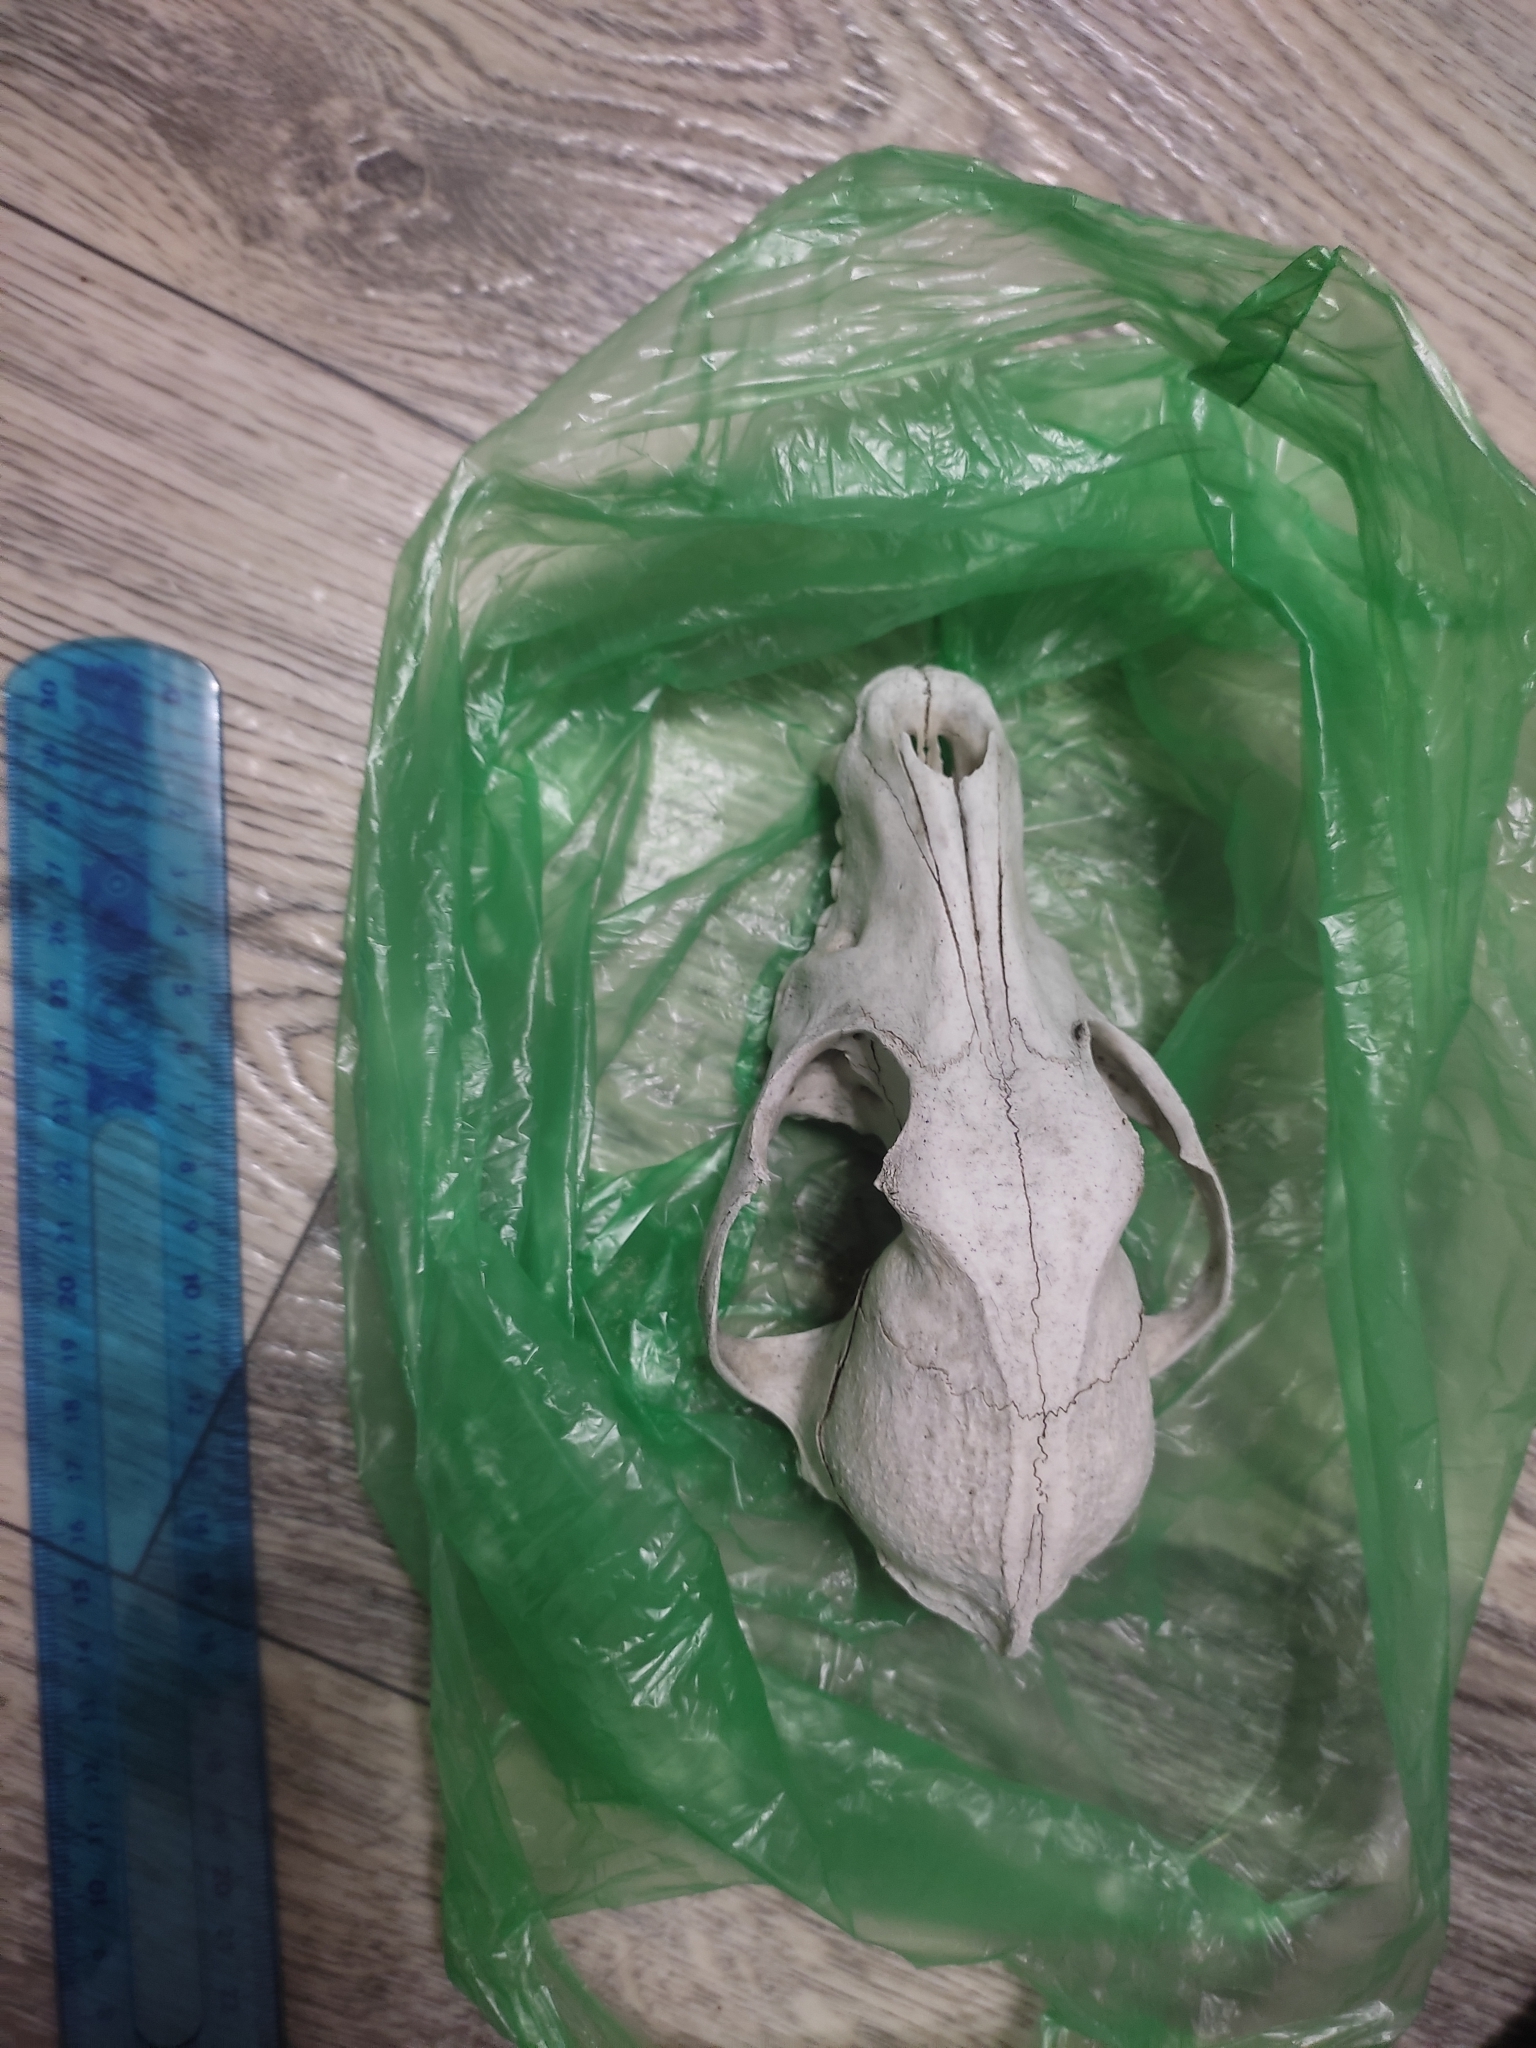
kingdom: Animalia
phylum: Chordata
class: Mammalia
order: Carnivora
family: Canidae
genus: Canis
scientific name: Canis lupus
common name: Gray wolf
